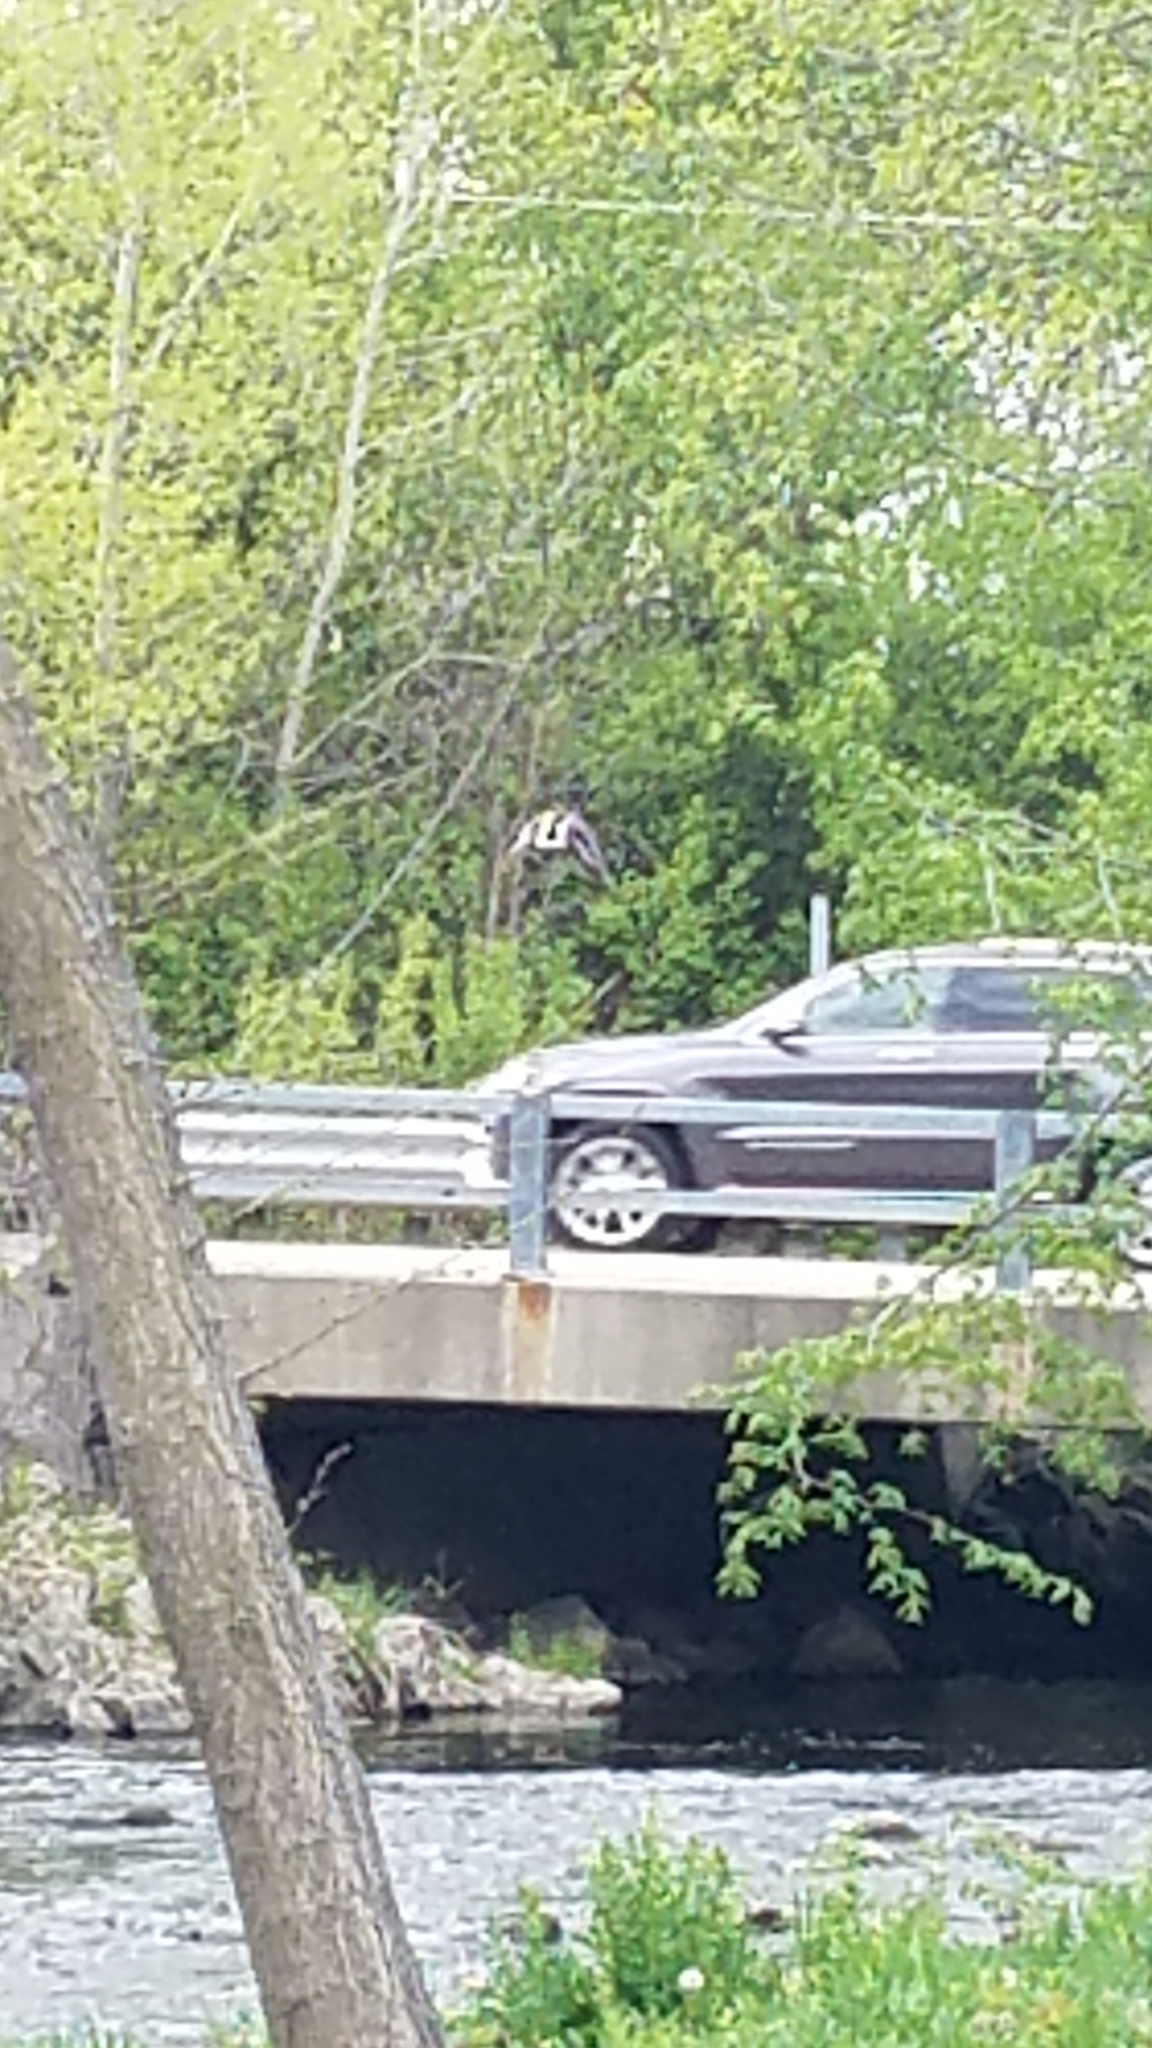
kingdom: Animalia
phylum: Chordata
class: Aves
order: Anseriformes
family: Anatidae
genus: Anas
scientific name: Anas platyrhynchos
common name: Mallard
